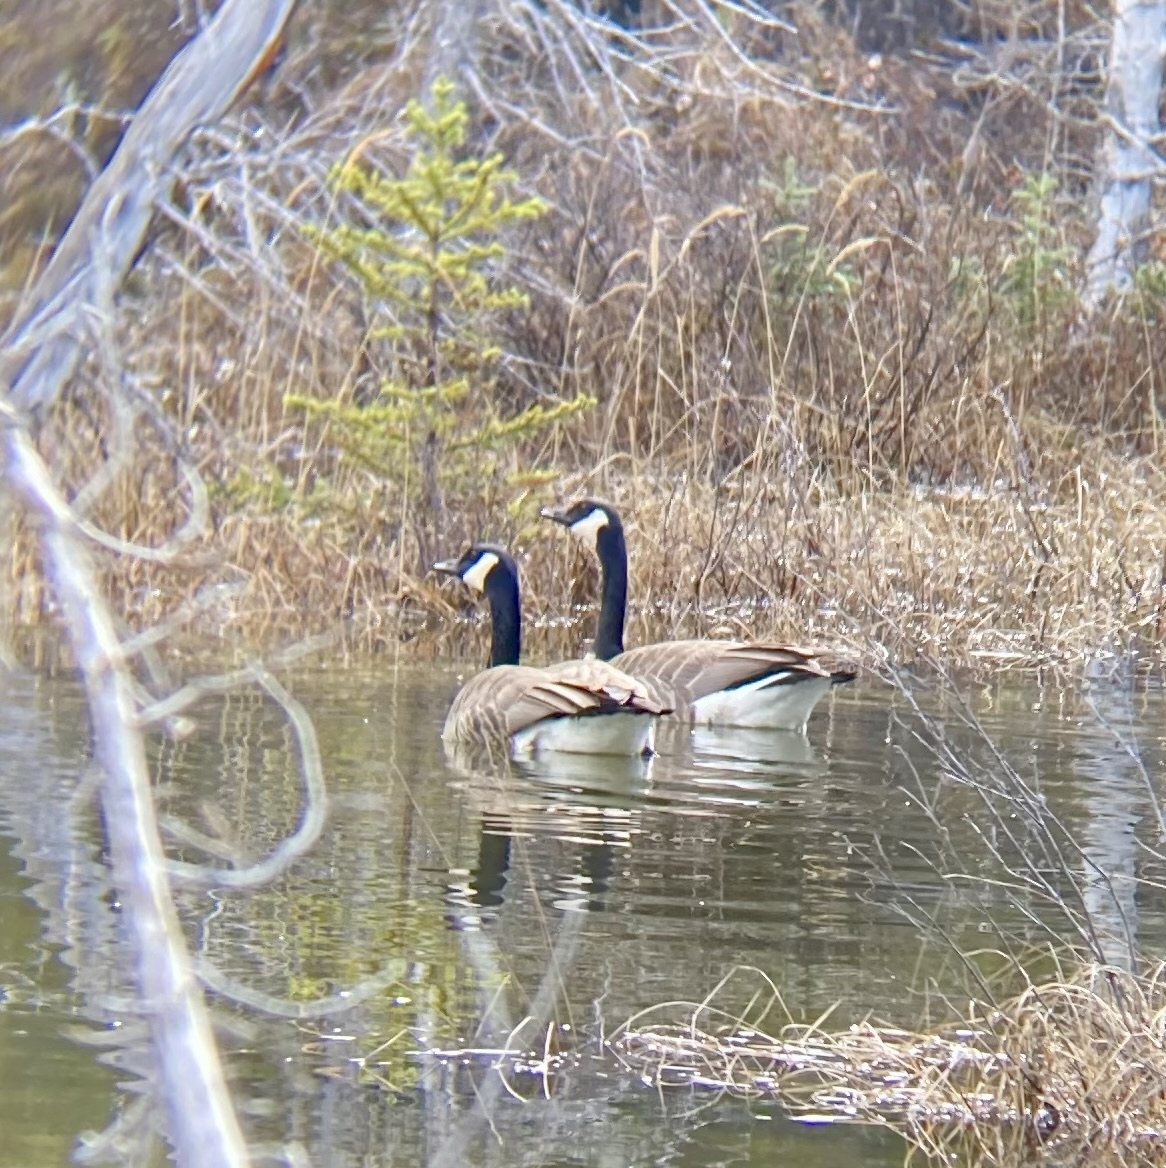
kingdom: Animalia
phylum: Chordata
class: Aves
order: Anseriformes
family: Anatidae
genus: Branta
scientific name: Branta canadensis
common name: Canada goose
